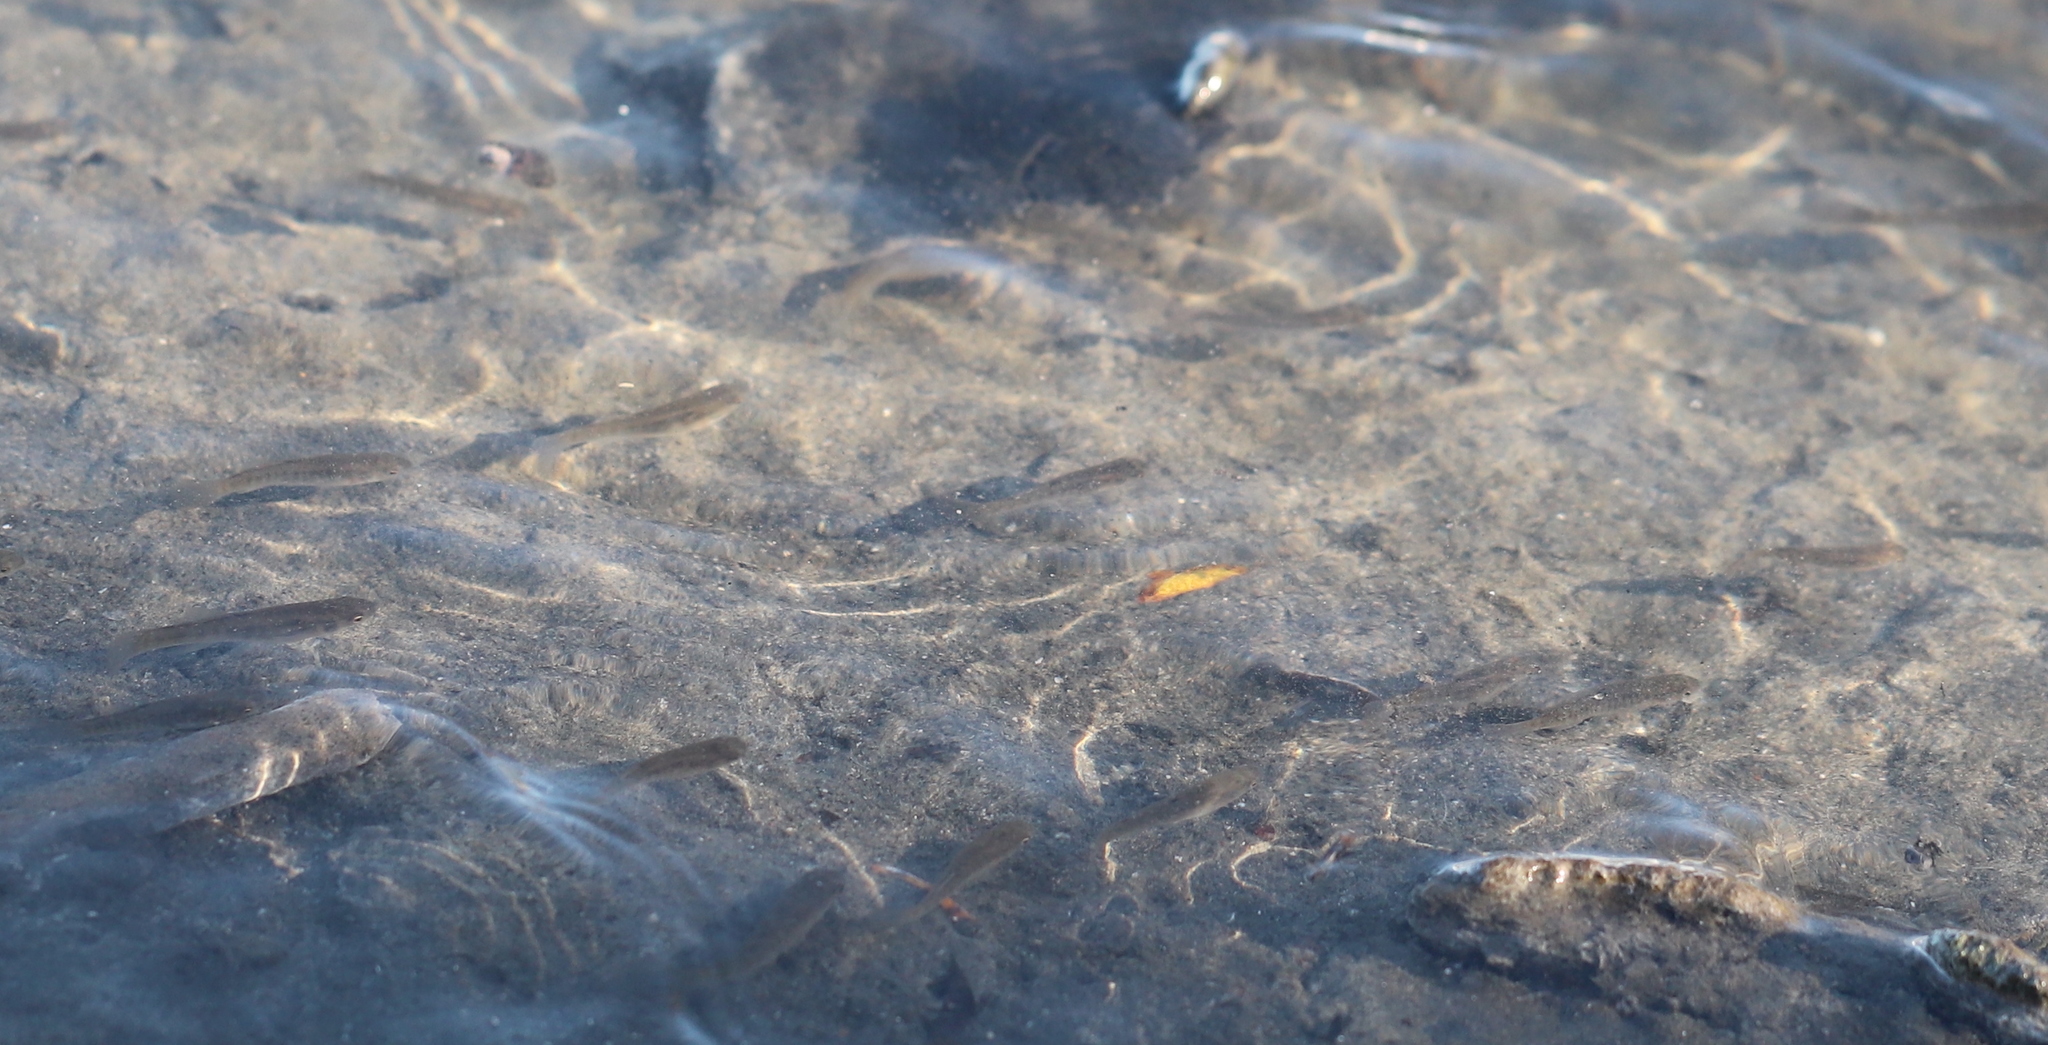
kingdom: Animalia
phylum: Chordata
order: Cyprinodontiformes
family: Fundulidae
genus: Fundulus
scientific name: Fundulus heteroclitus
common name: Mummichog
